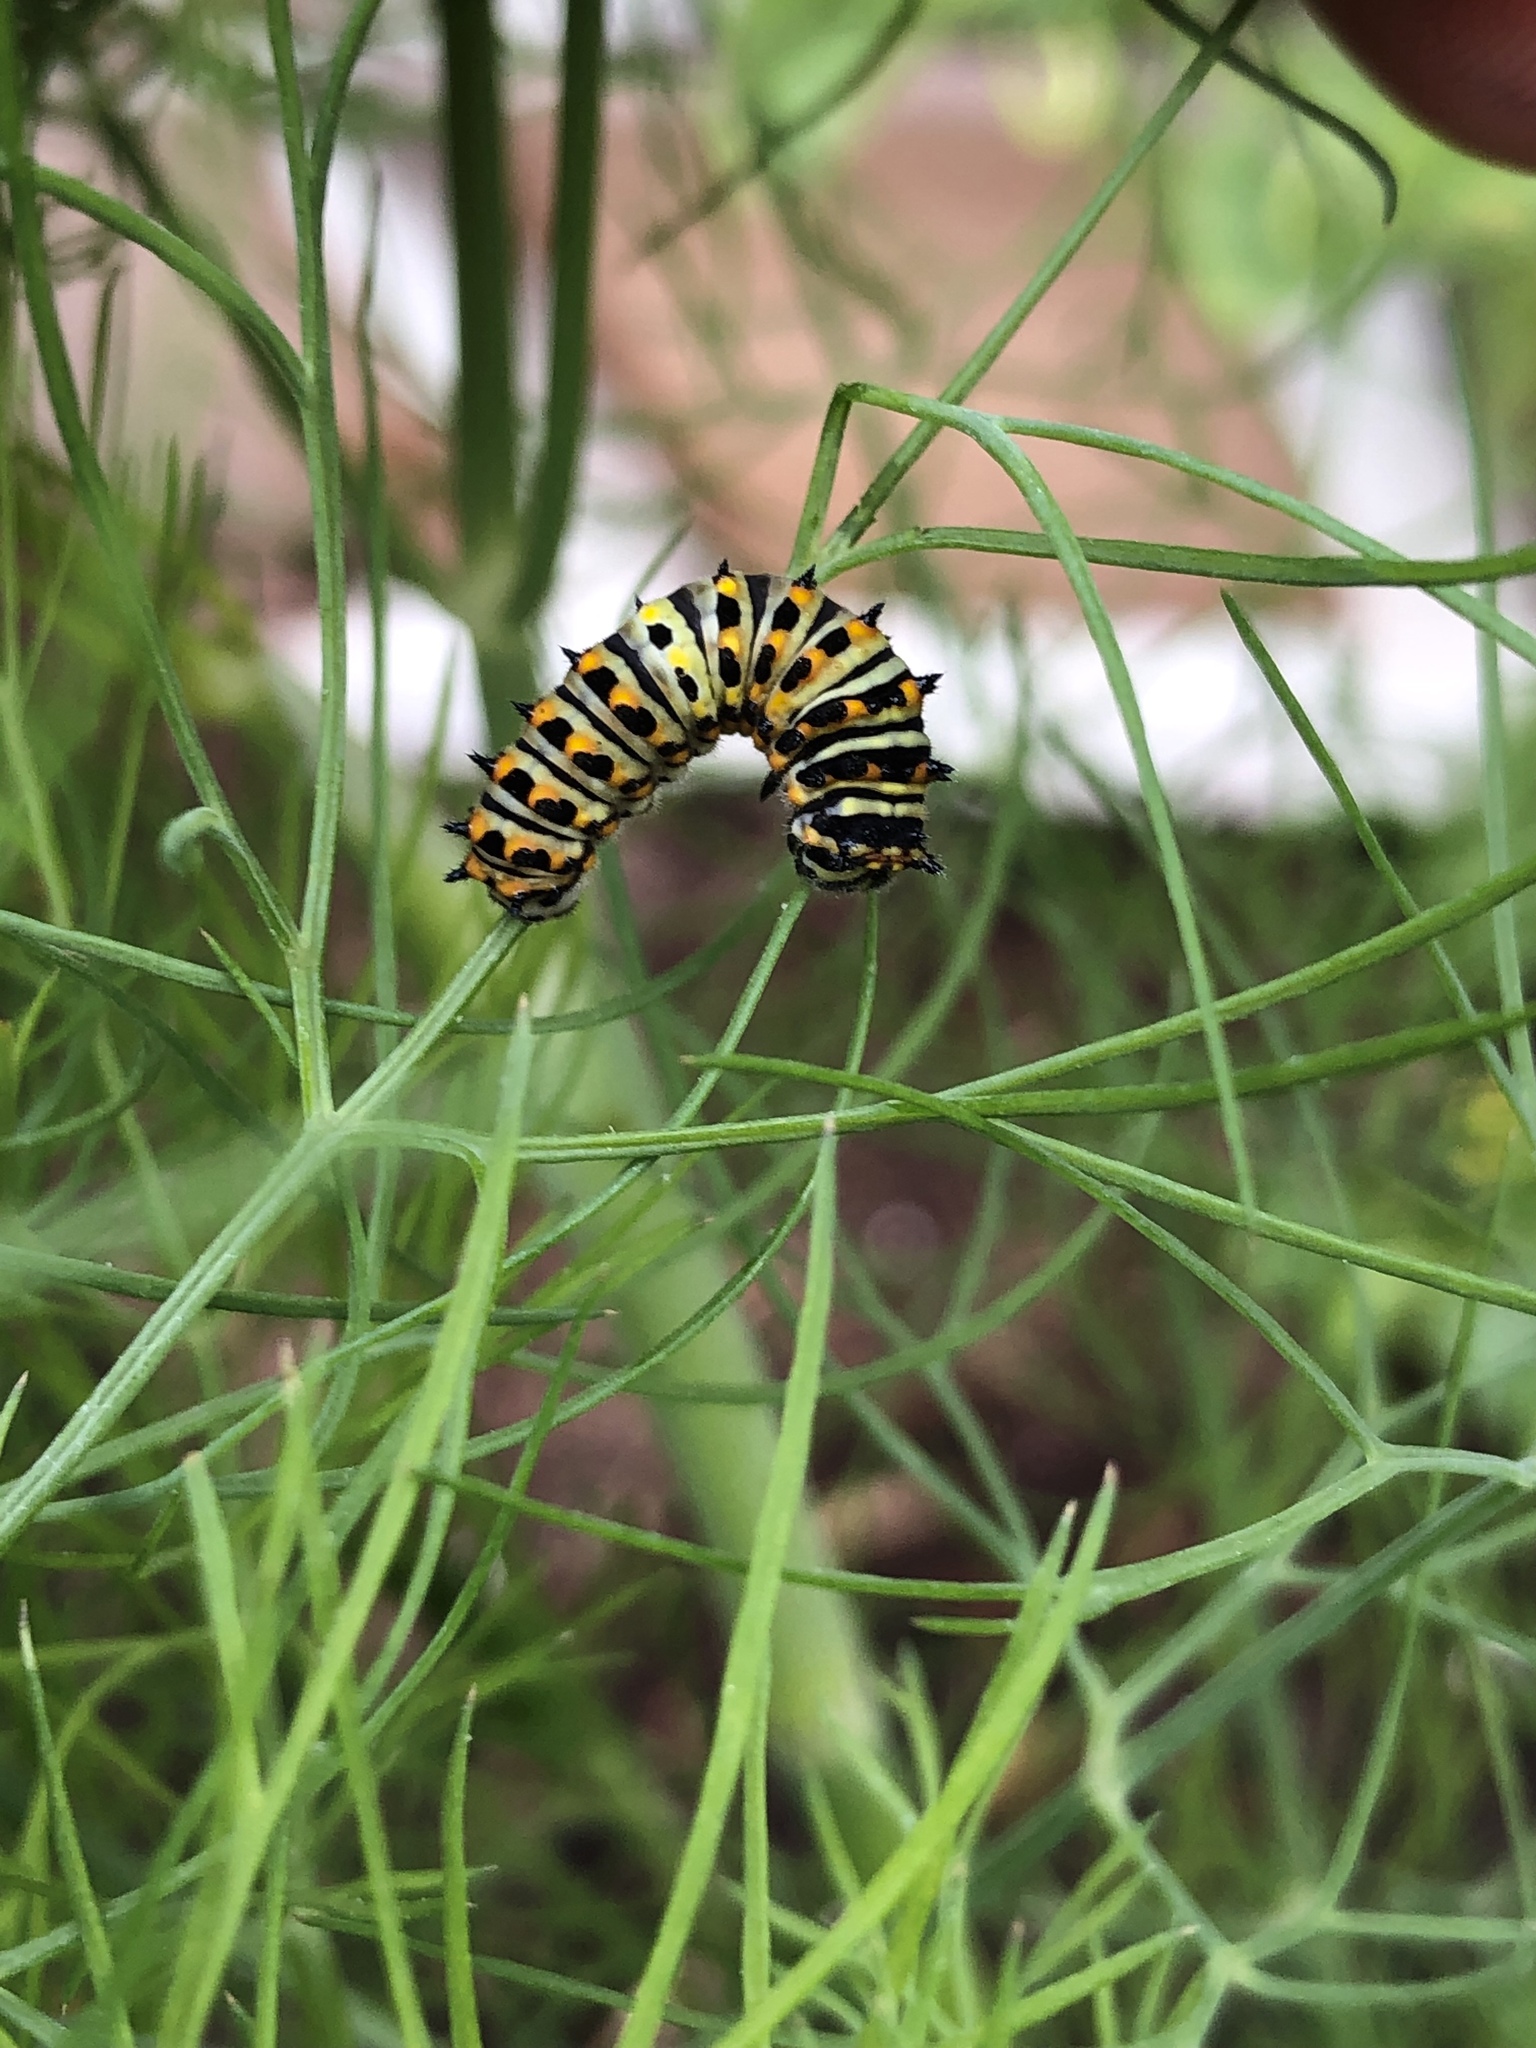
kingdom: Animalia
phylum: Arthropoda
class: Insecta
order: Lepidoptera
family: Papilionidae
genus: Papilio
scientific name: Papilio zelicaon
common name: Anise swallowtail
